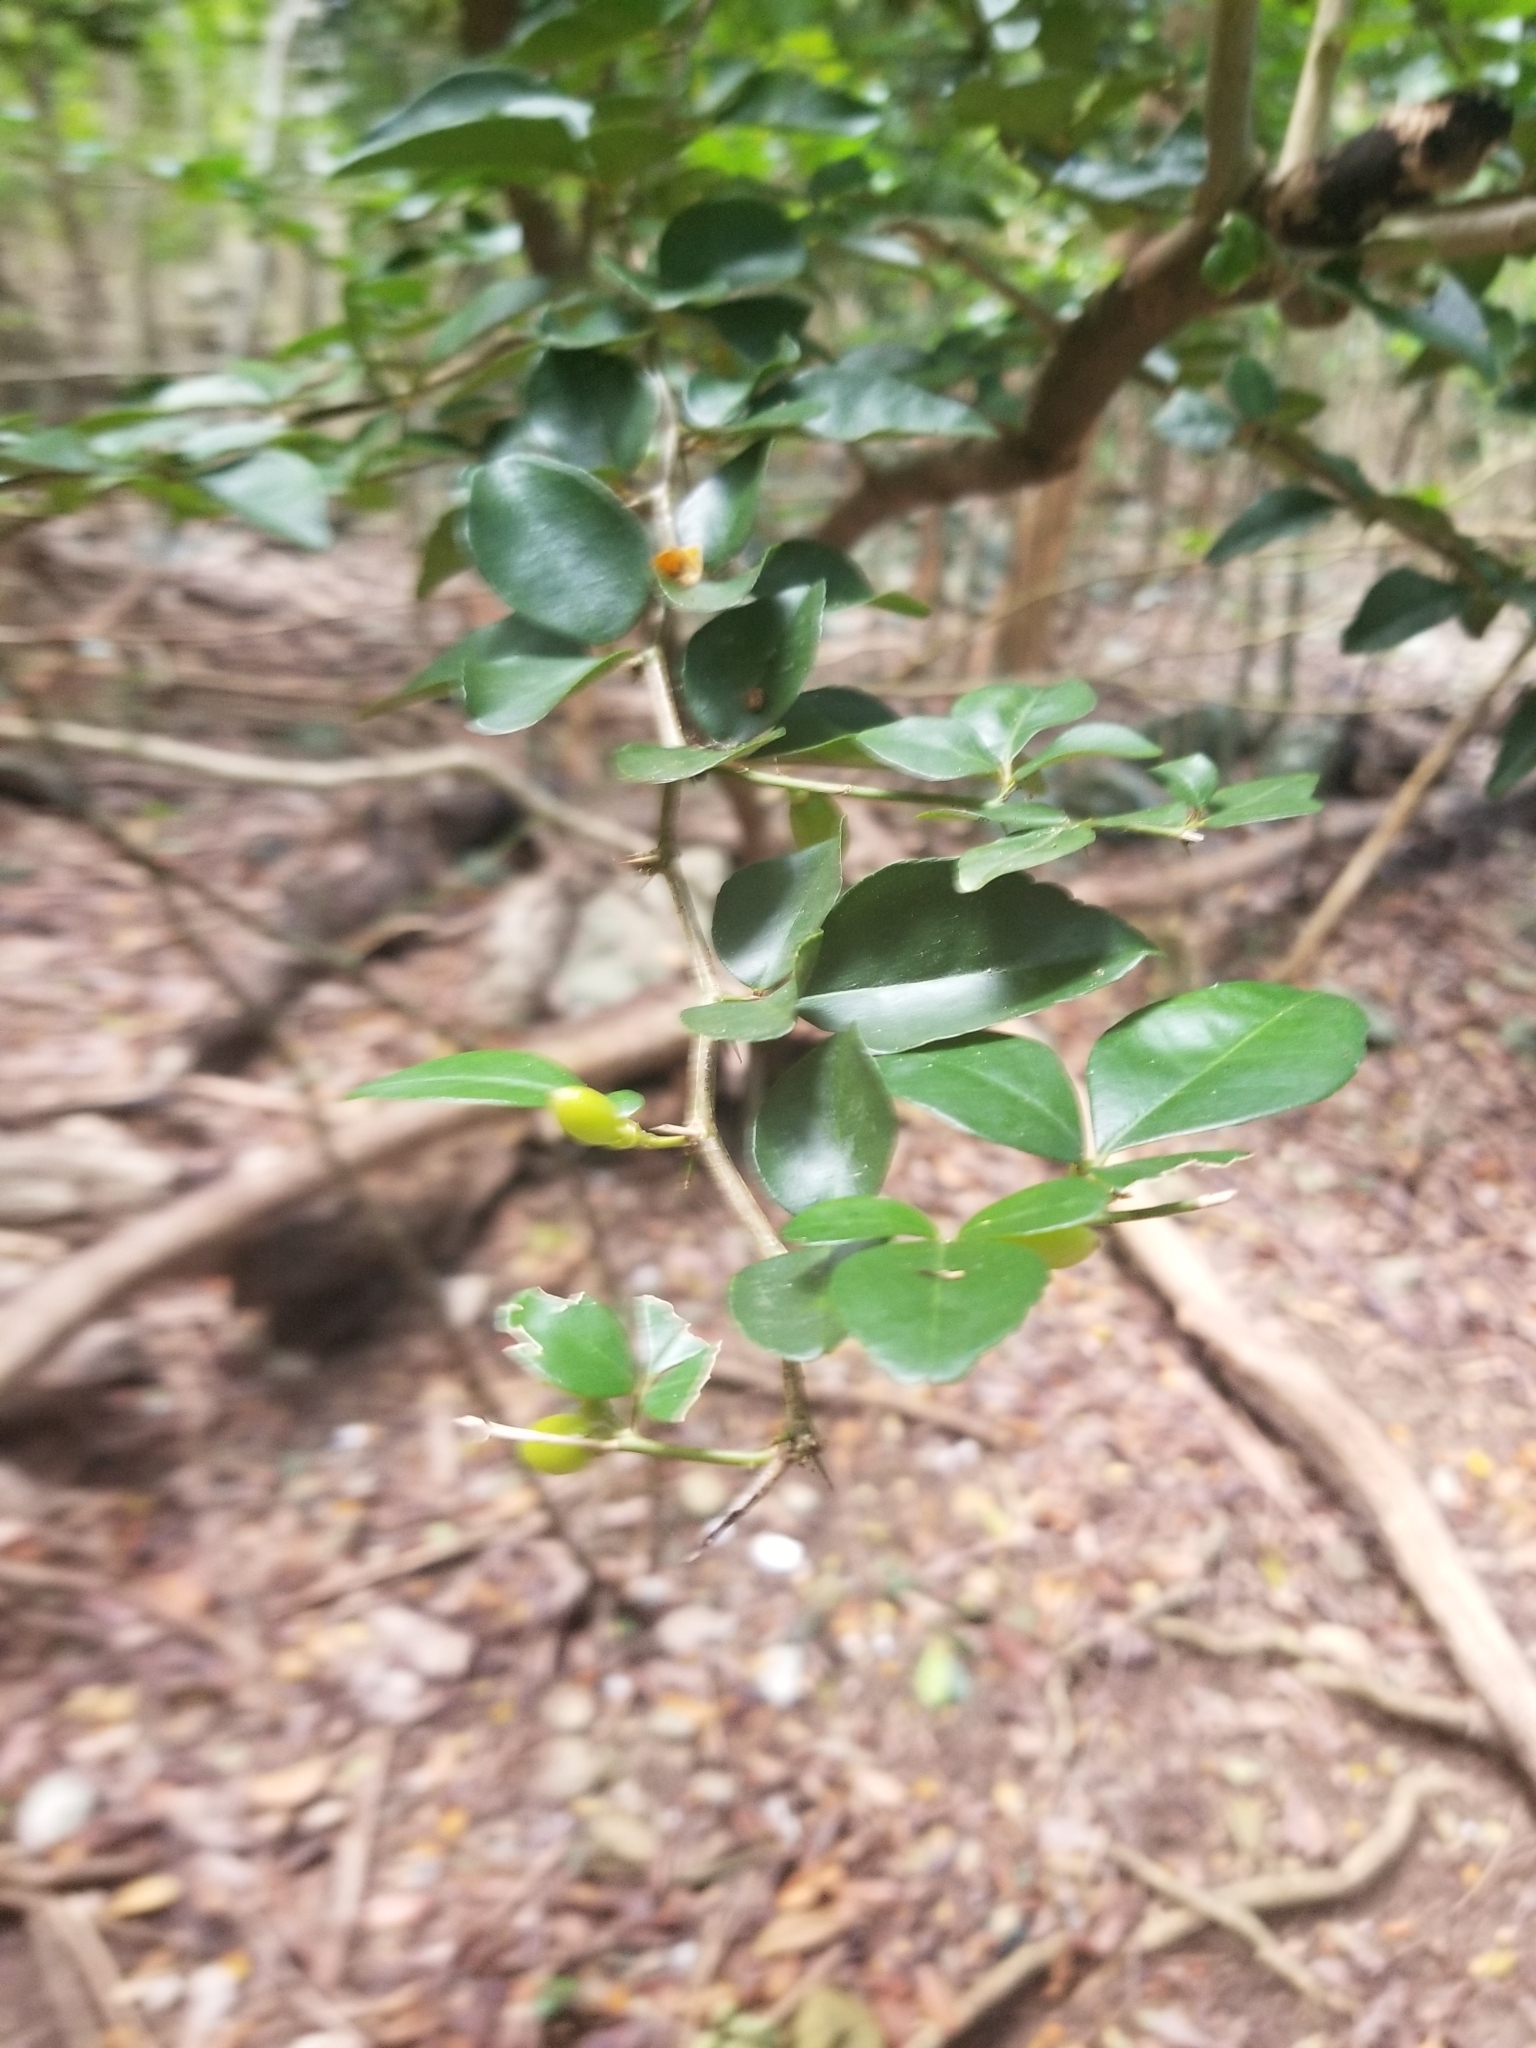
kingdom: Plantae
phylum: Tracheophyta
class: Magnoliopsida
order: Sapindales
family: Rutaceae
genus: Triphasia
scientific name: Triphasia trifolia
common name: Limeberry
